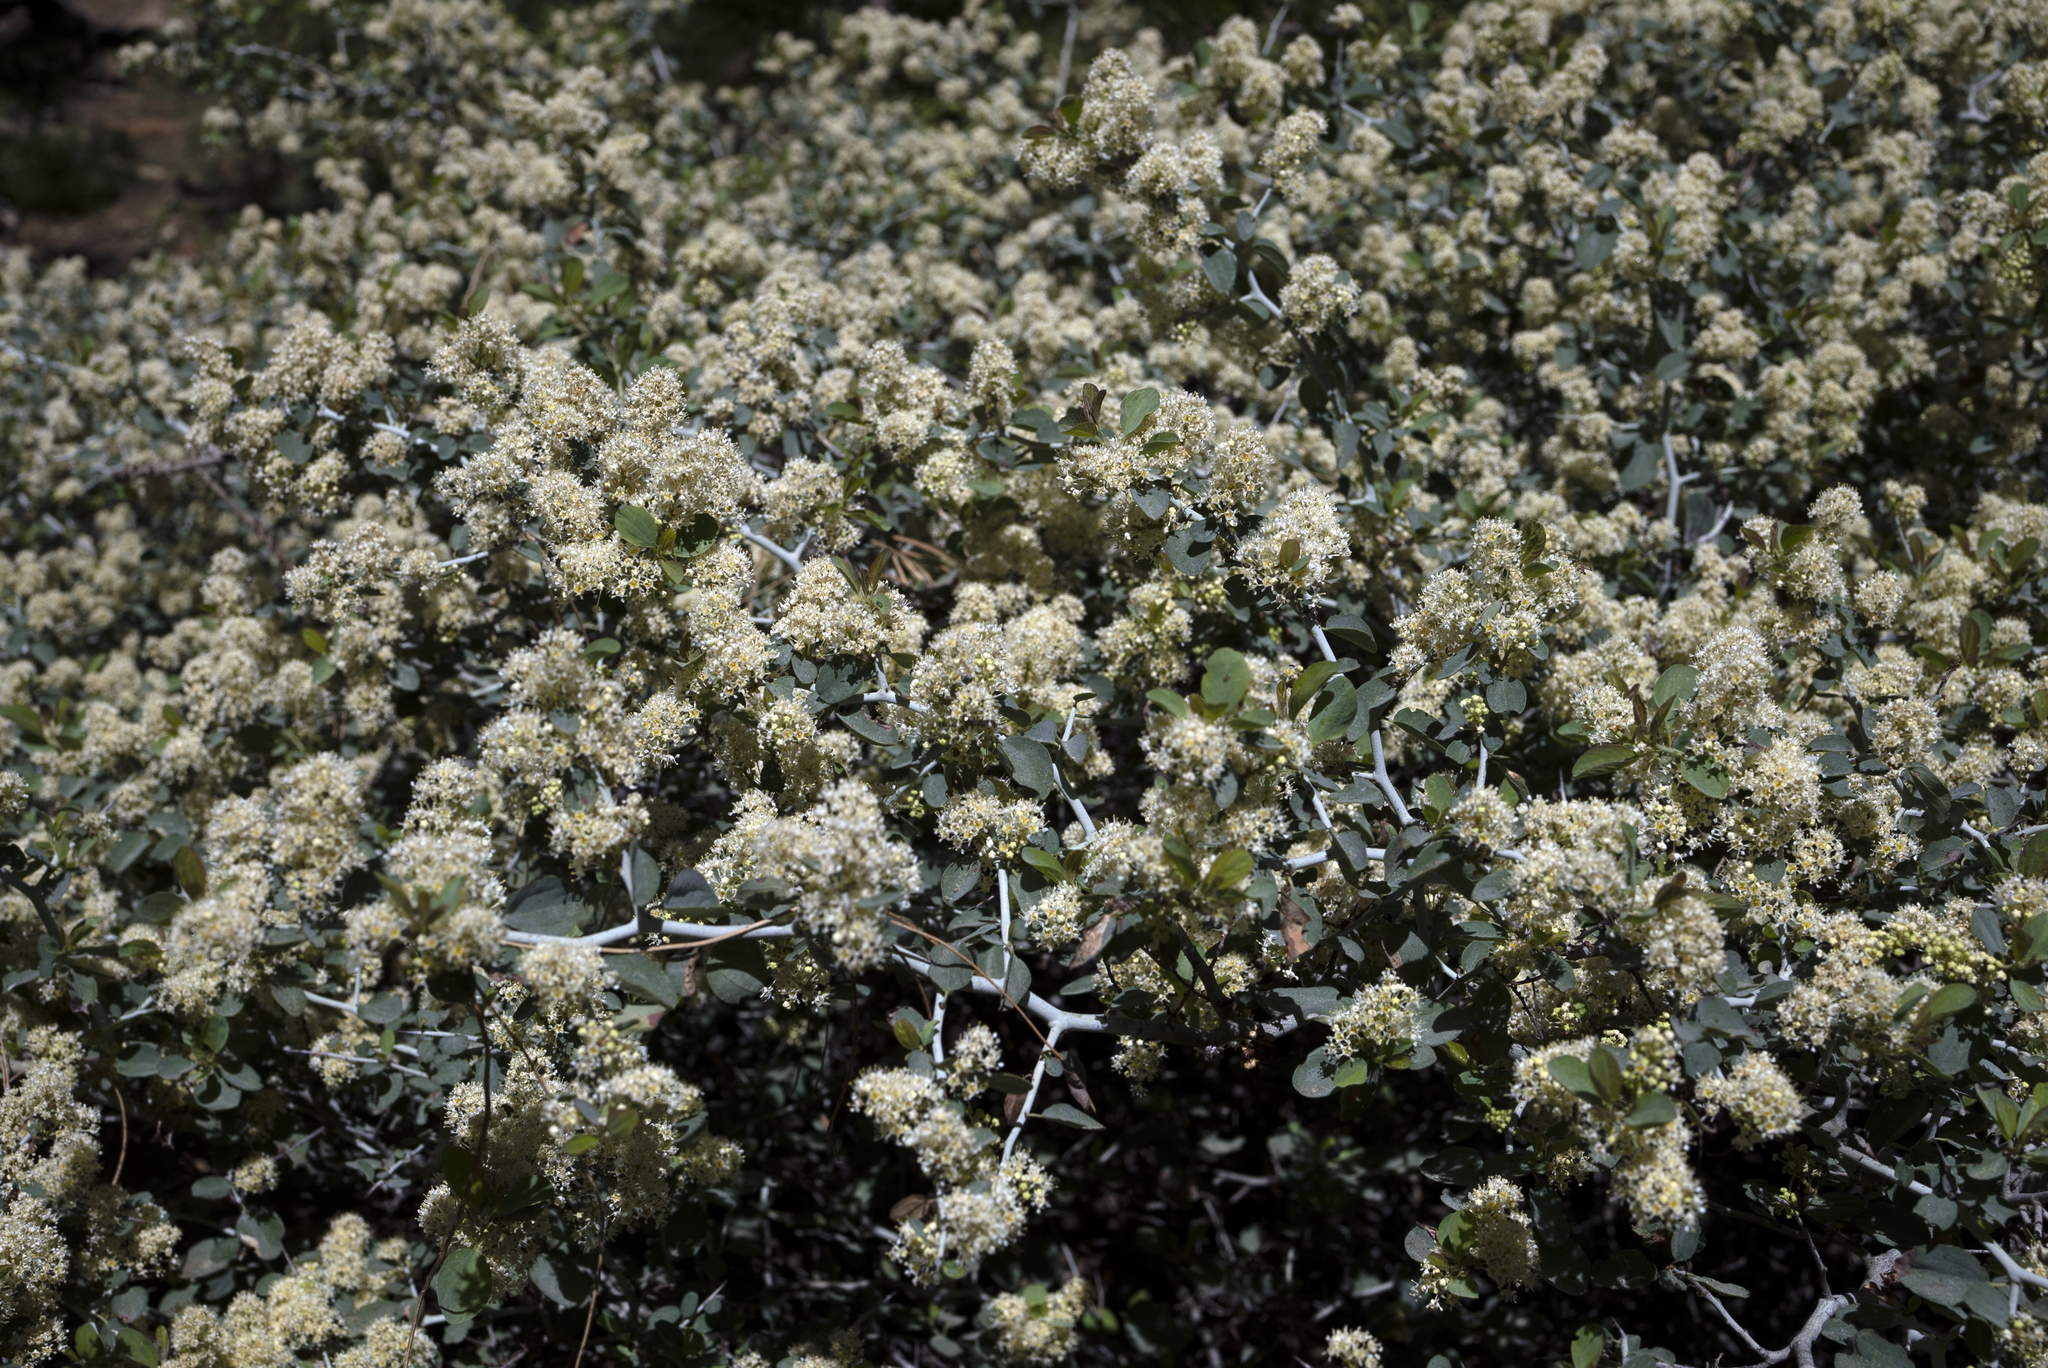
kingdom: Plantae
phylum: Tracheophyta
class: Magnoliopsida
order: Rosales
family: Rhamnaceae
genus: Ceanothus
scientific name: Ceanothus cordulatus
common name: Mountain whitethorn
